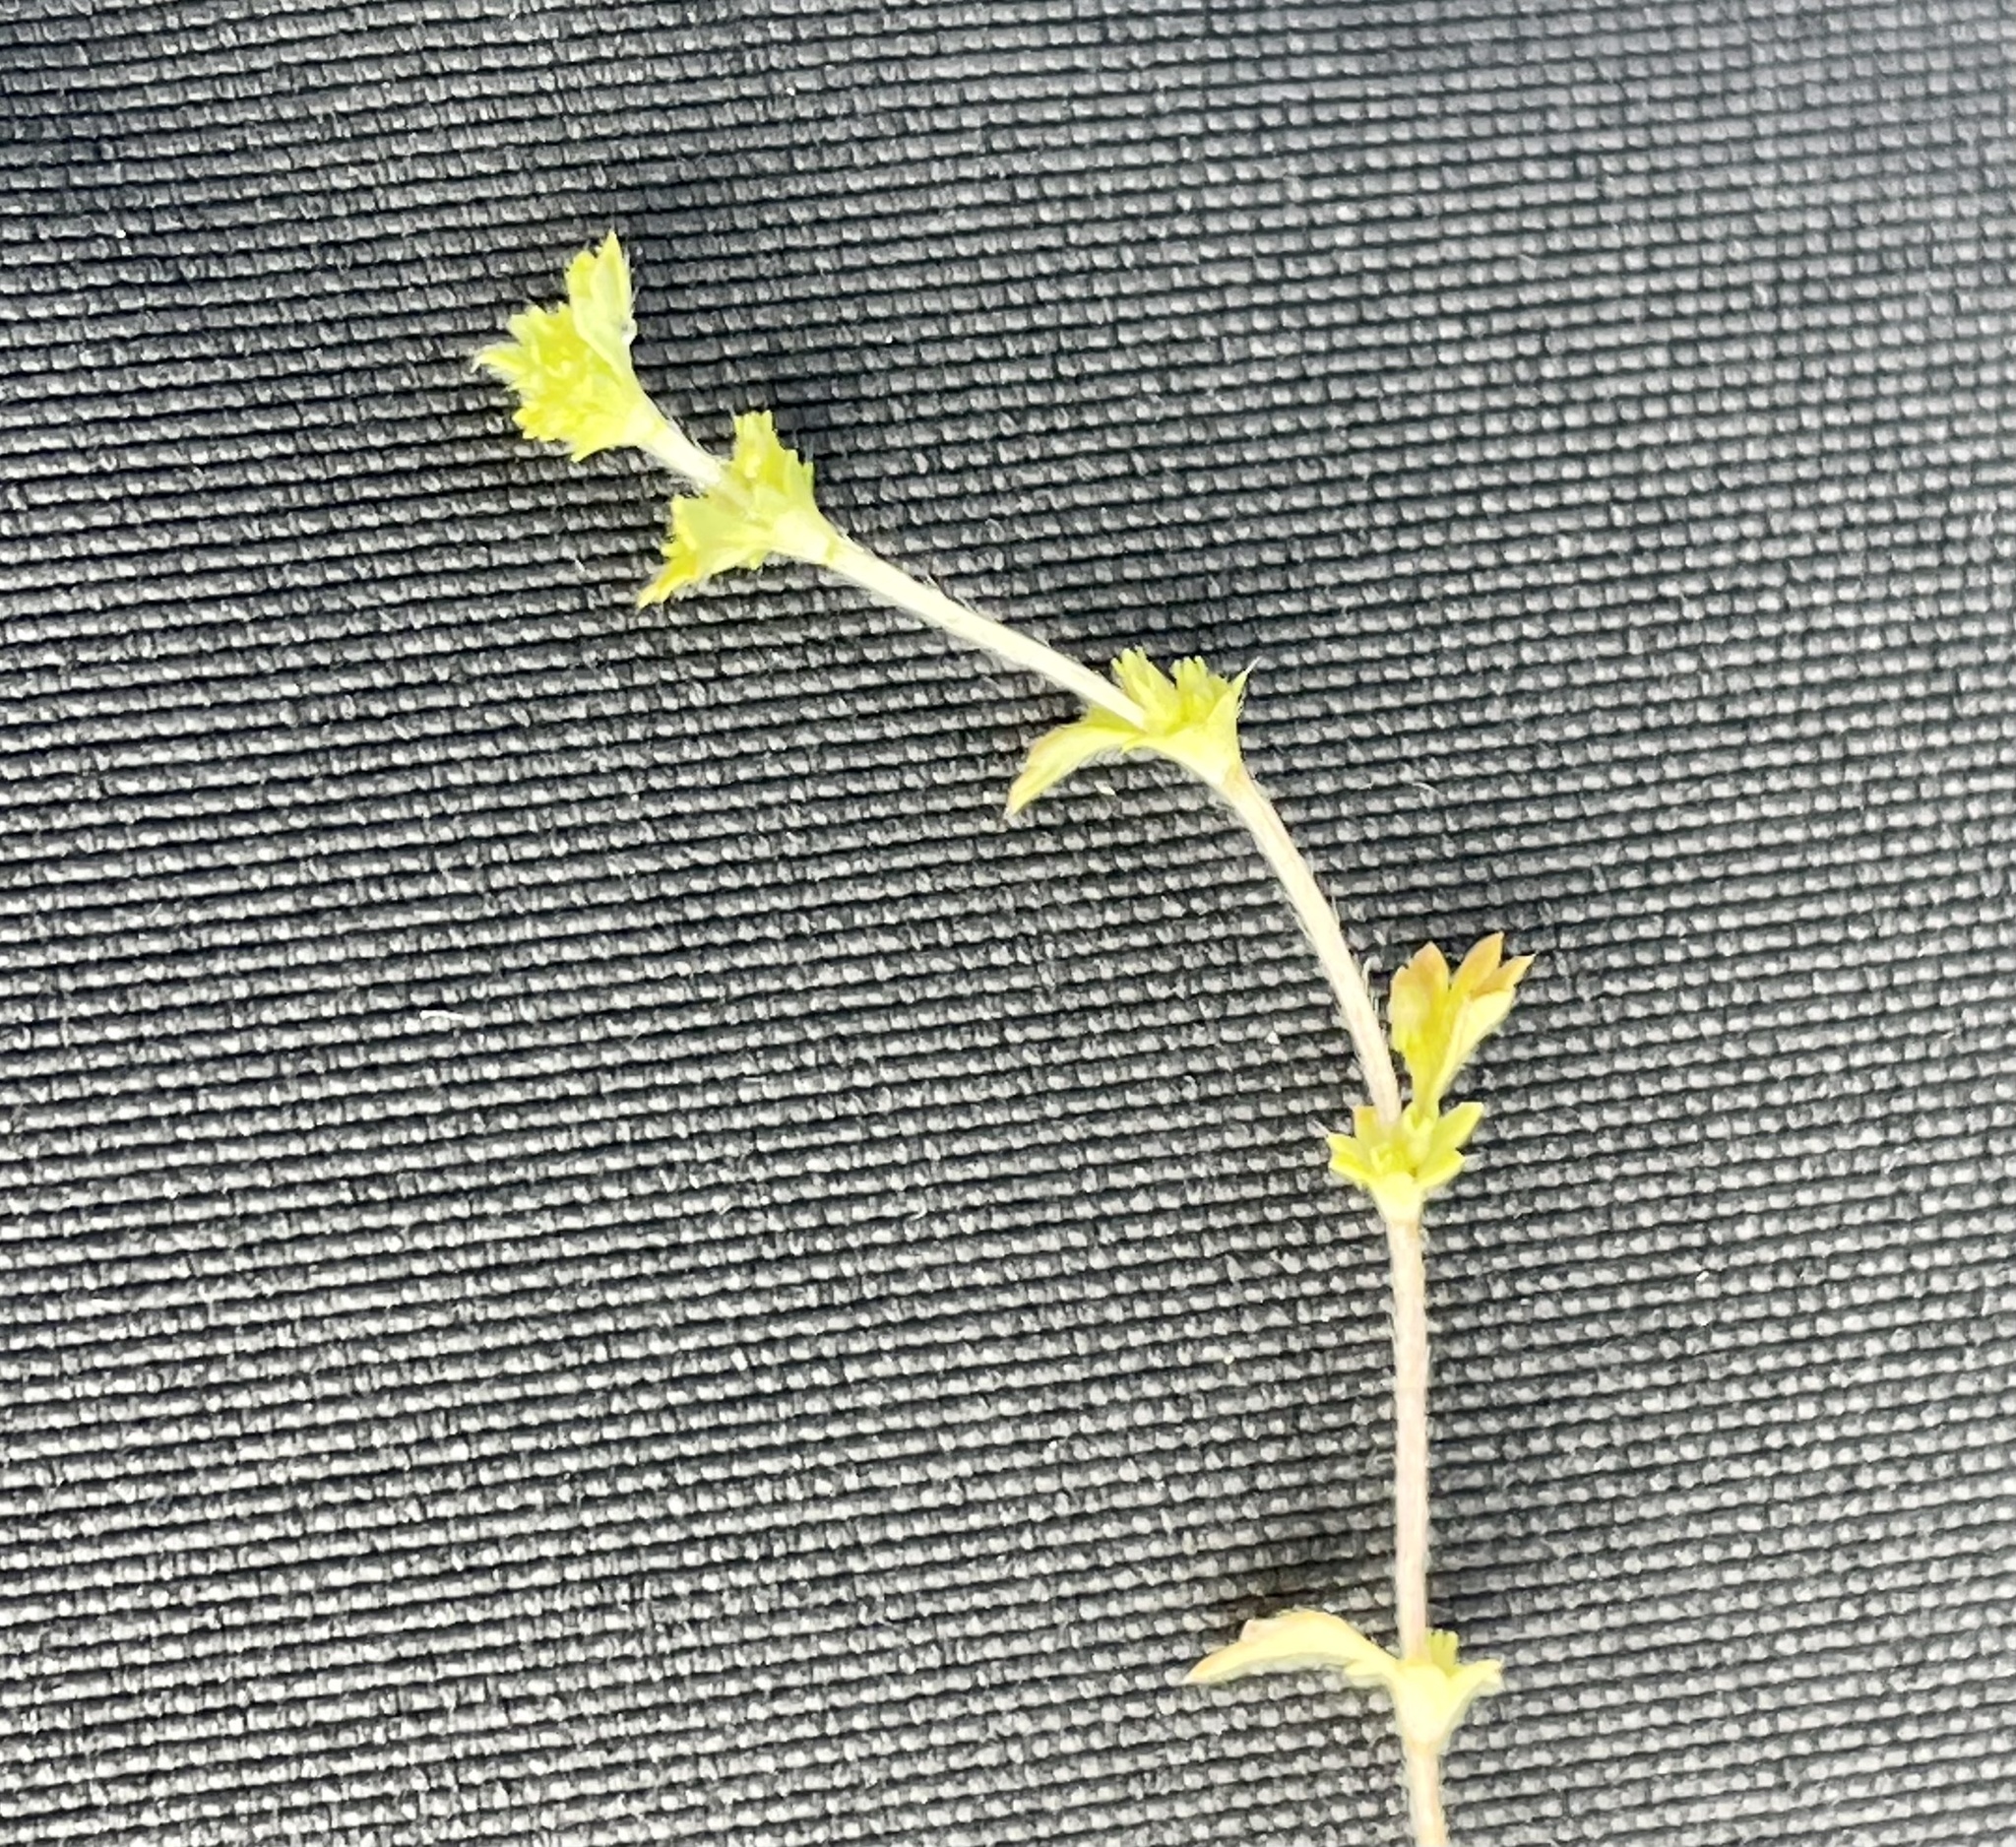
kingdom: Plantae
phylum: Tracheophyta
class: Magnoliopsida
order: Rosales
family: Rosaceae
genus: Aphanes
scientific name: Aphanes arvensis
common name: Parsley-piert
